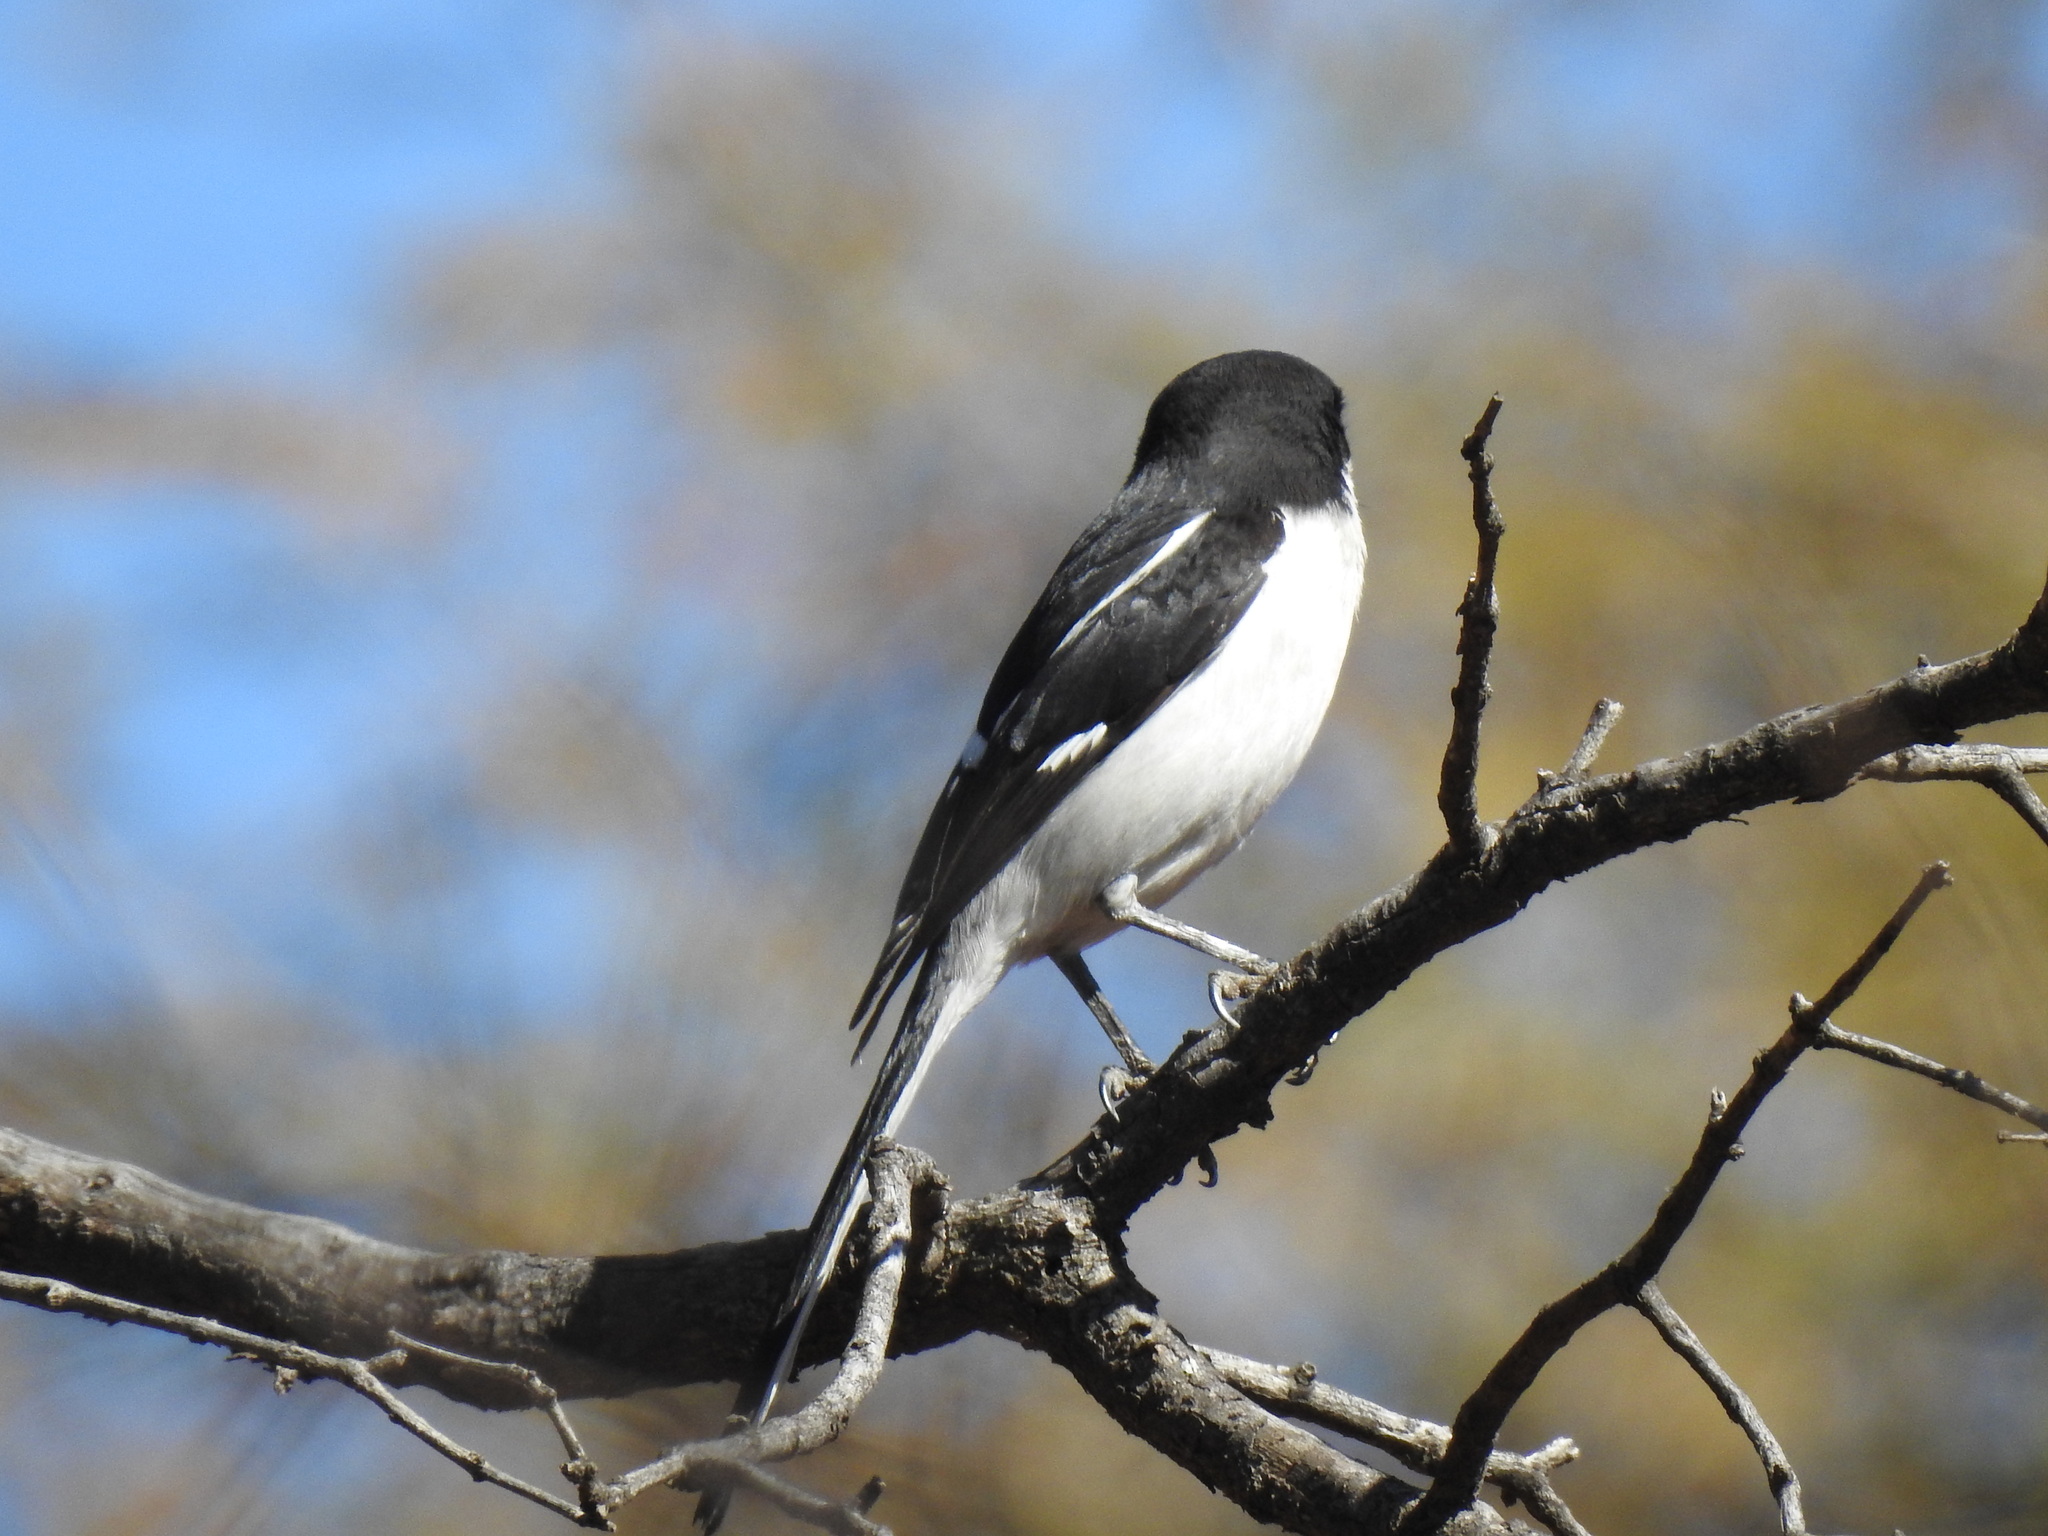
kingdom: Animalia
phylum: Chordata
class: Aves
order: Passeriformes
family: Laniidae
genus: Lanius
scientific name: Lanius collaris
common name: Southern fiscal
